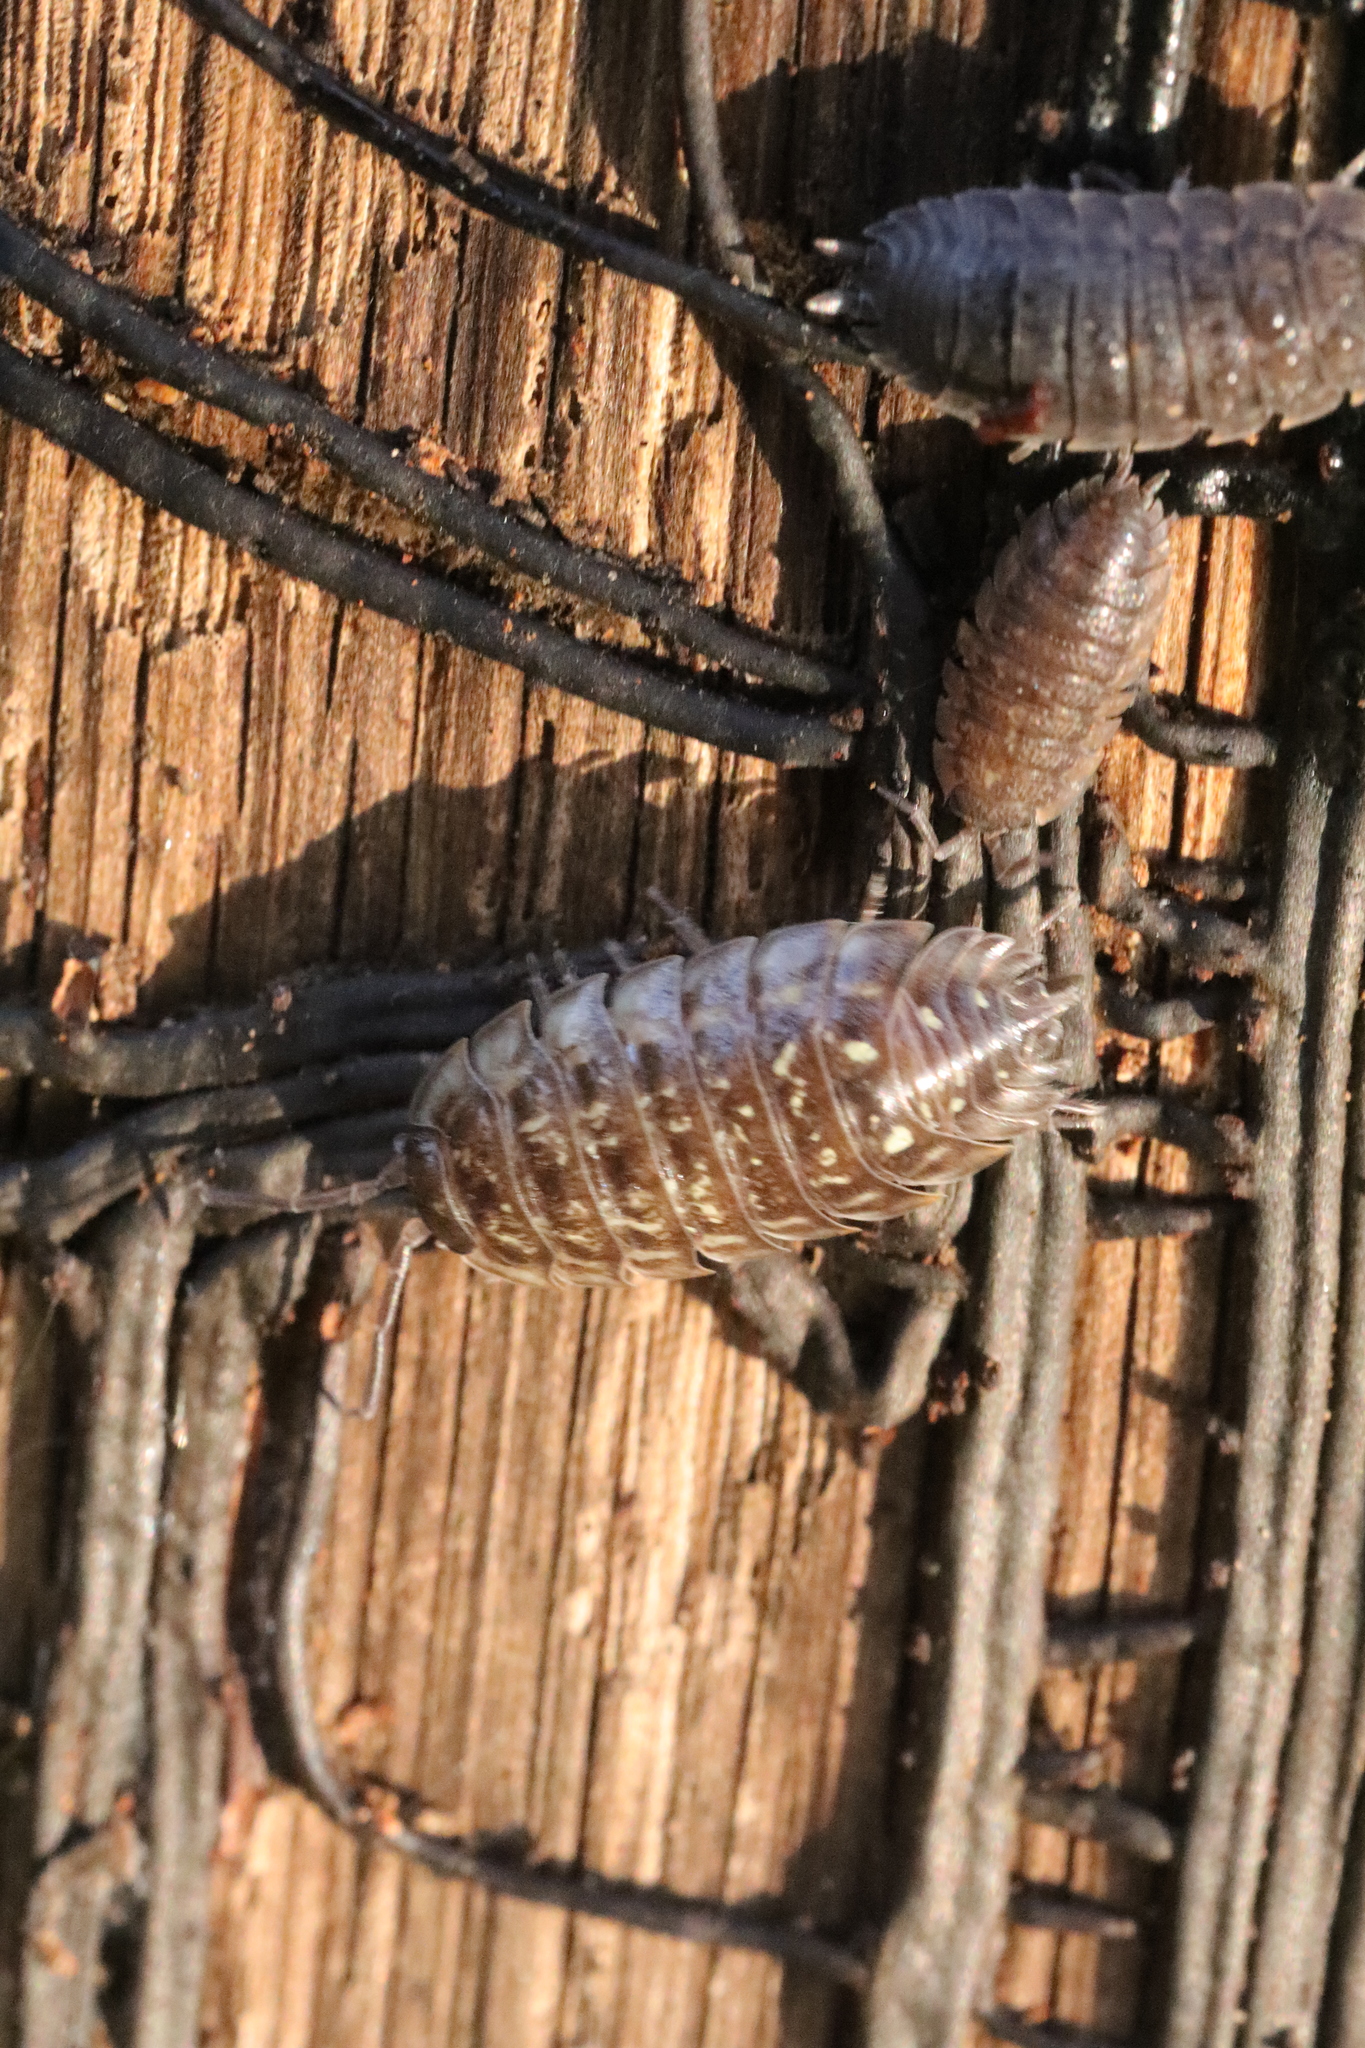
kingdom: Animalia
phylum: Arthropoda
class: Malacostraca
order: Isopoda
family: Oniscidae
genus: Oniscus
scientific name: Oniscus asellus
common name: Common shiny woodlouse
